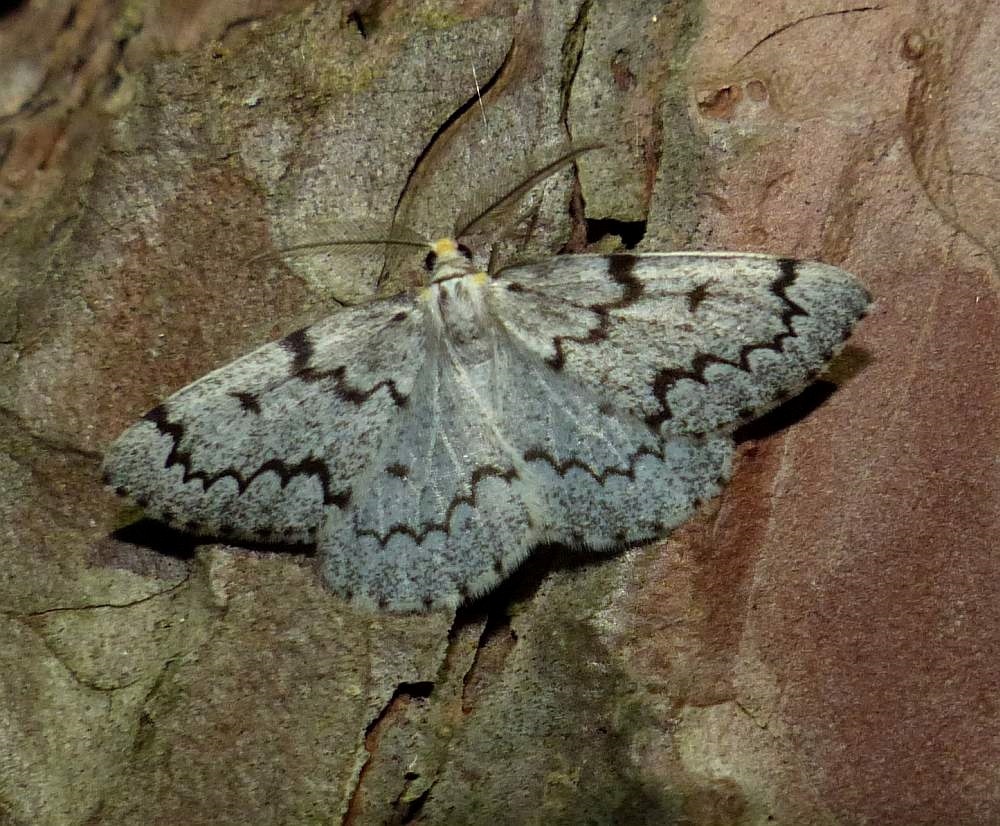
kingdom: Animalia
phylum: Arthropoda
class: Insecta
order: Lepidoptera
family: Geometridae
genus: Nepytia
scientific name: Nepytia canosaria
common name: False hemlock looper
